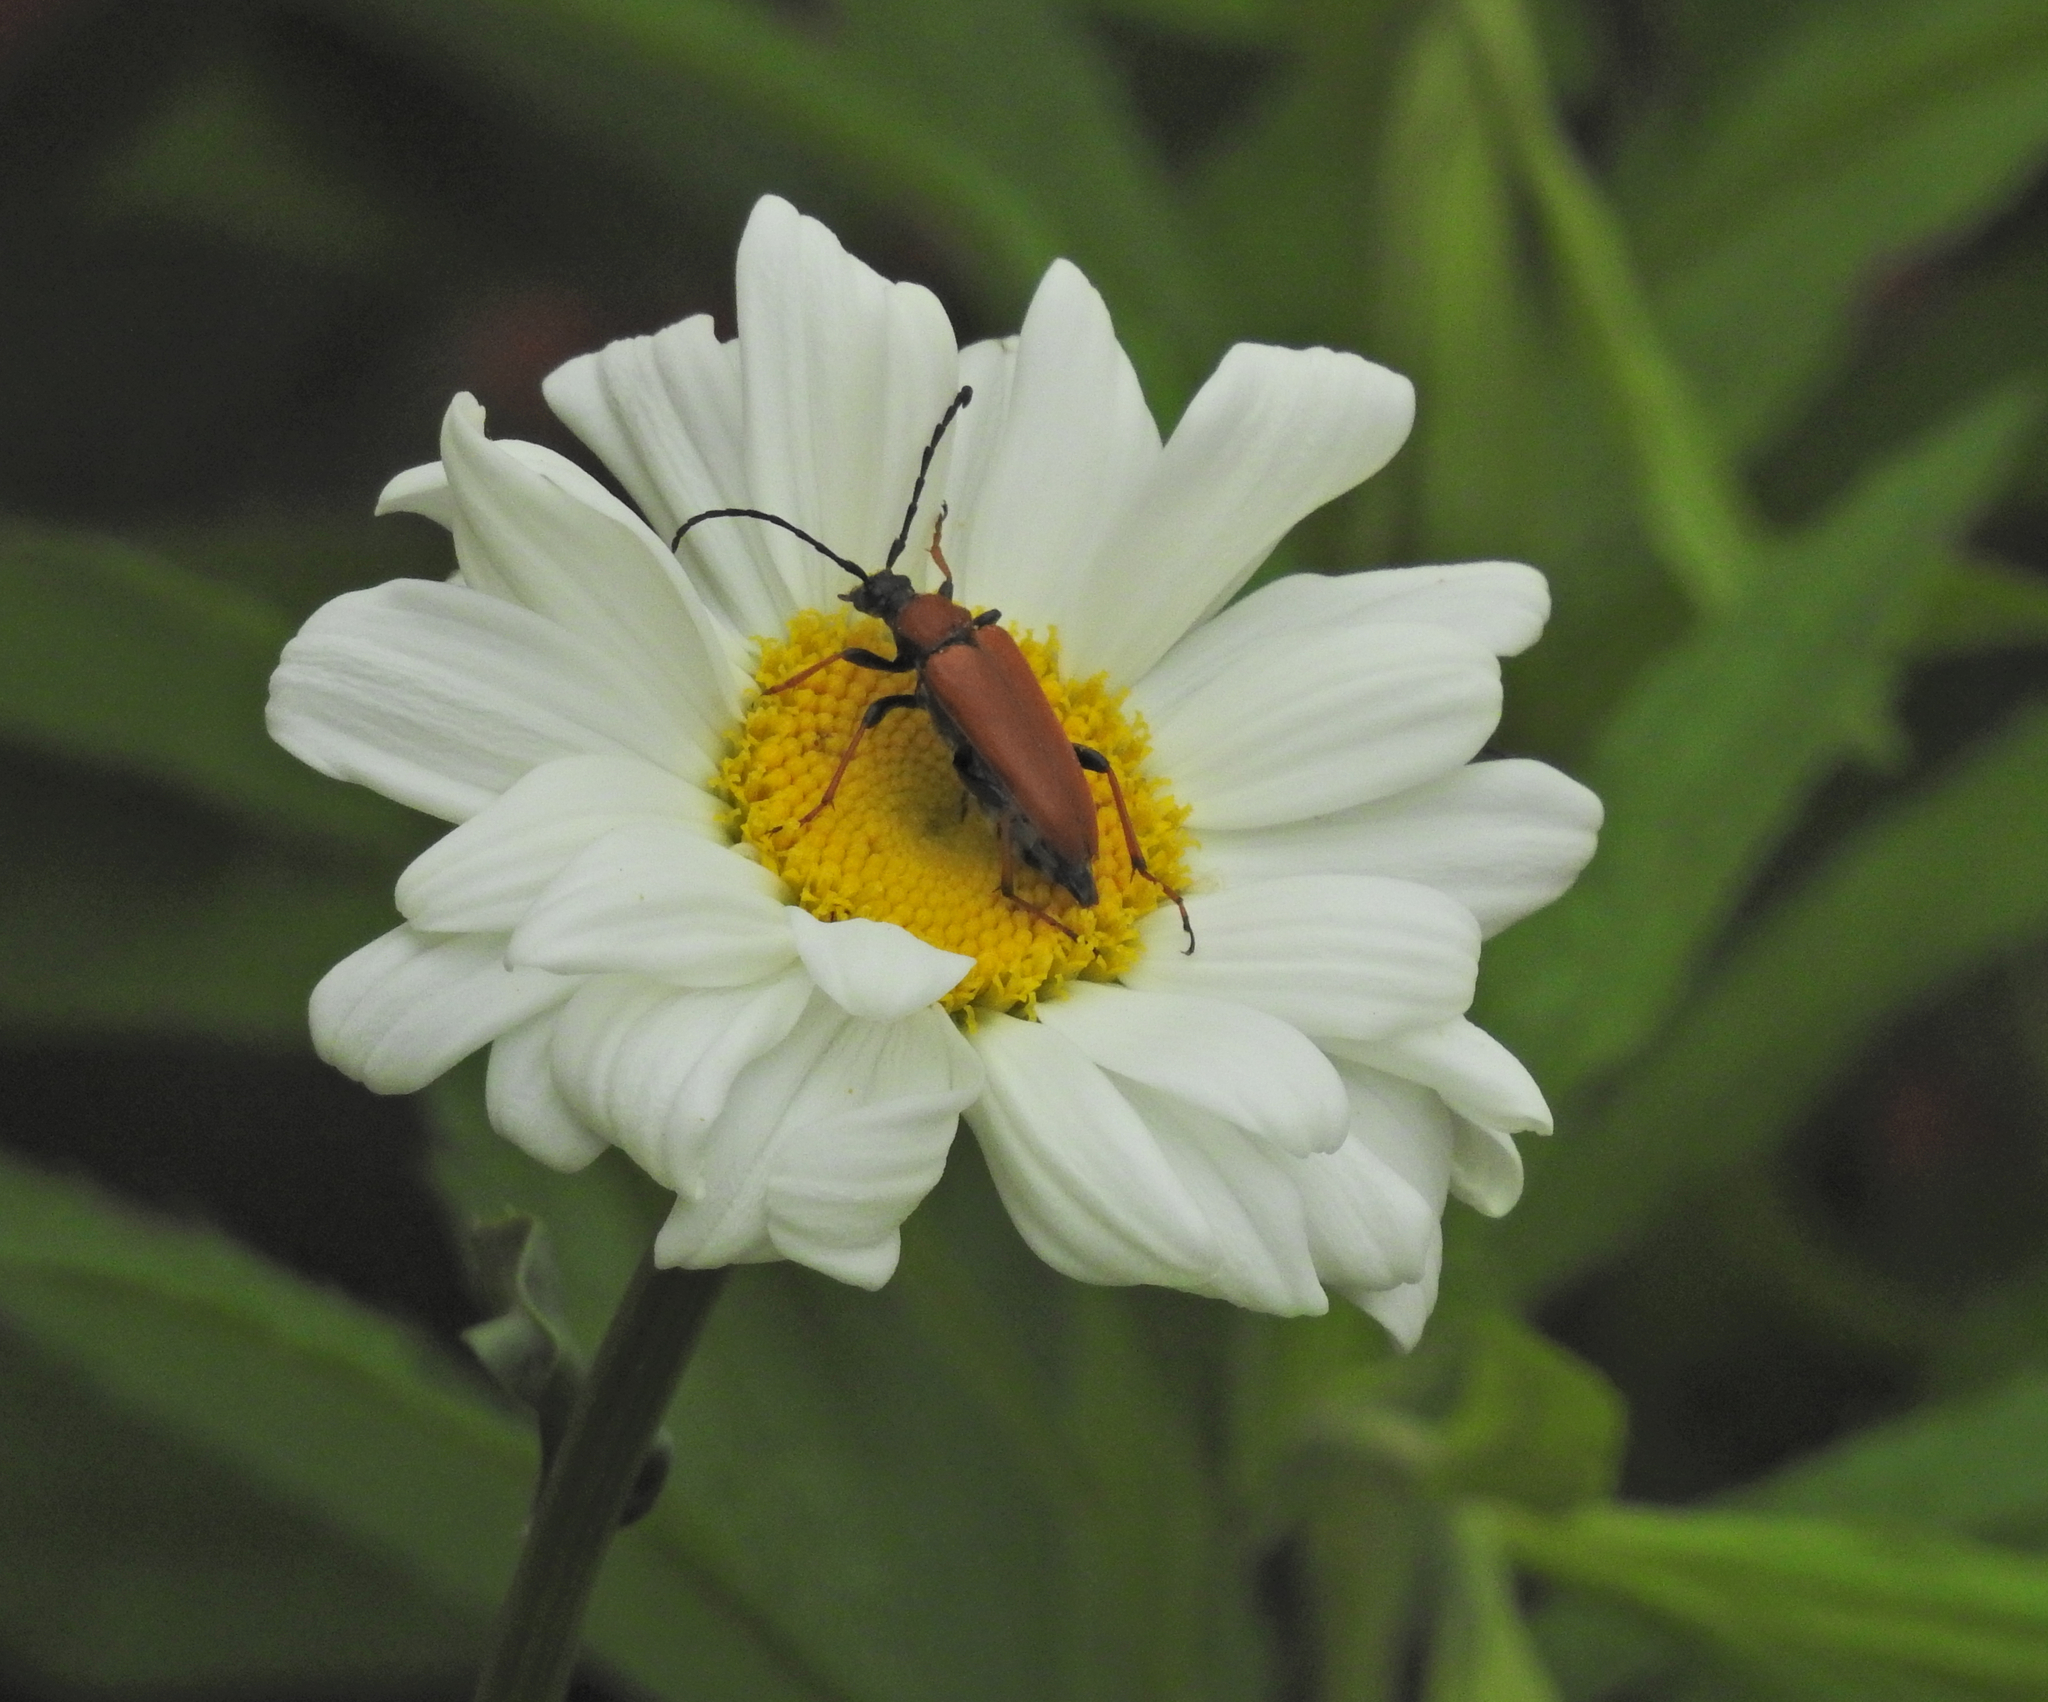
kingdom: Animalia
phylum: Arthropoda
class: Insecta
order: Coleoptera
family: Cerambycidae
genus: Stictoleptura
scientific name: Stictoleptura rubra
